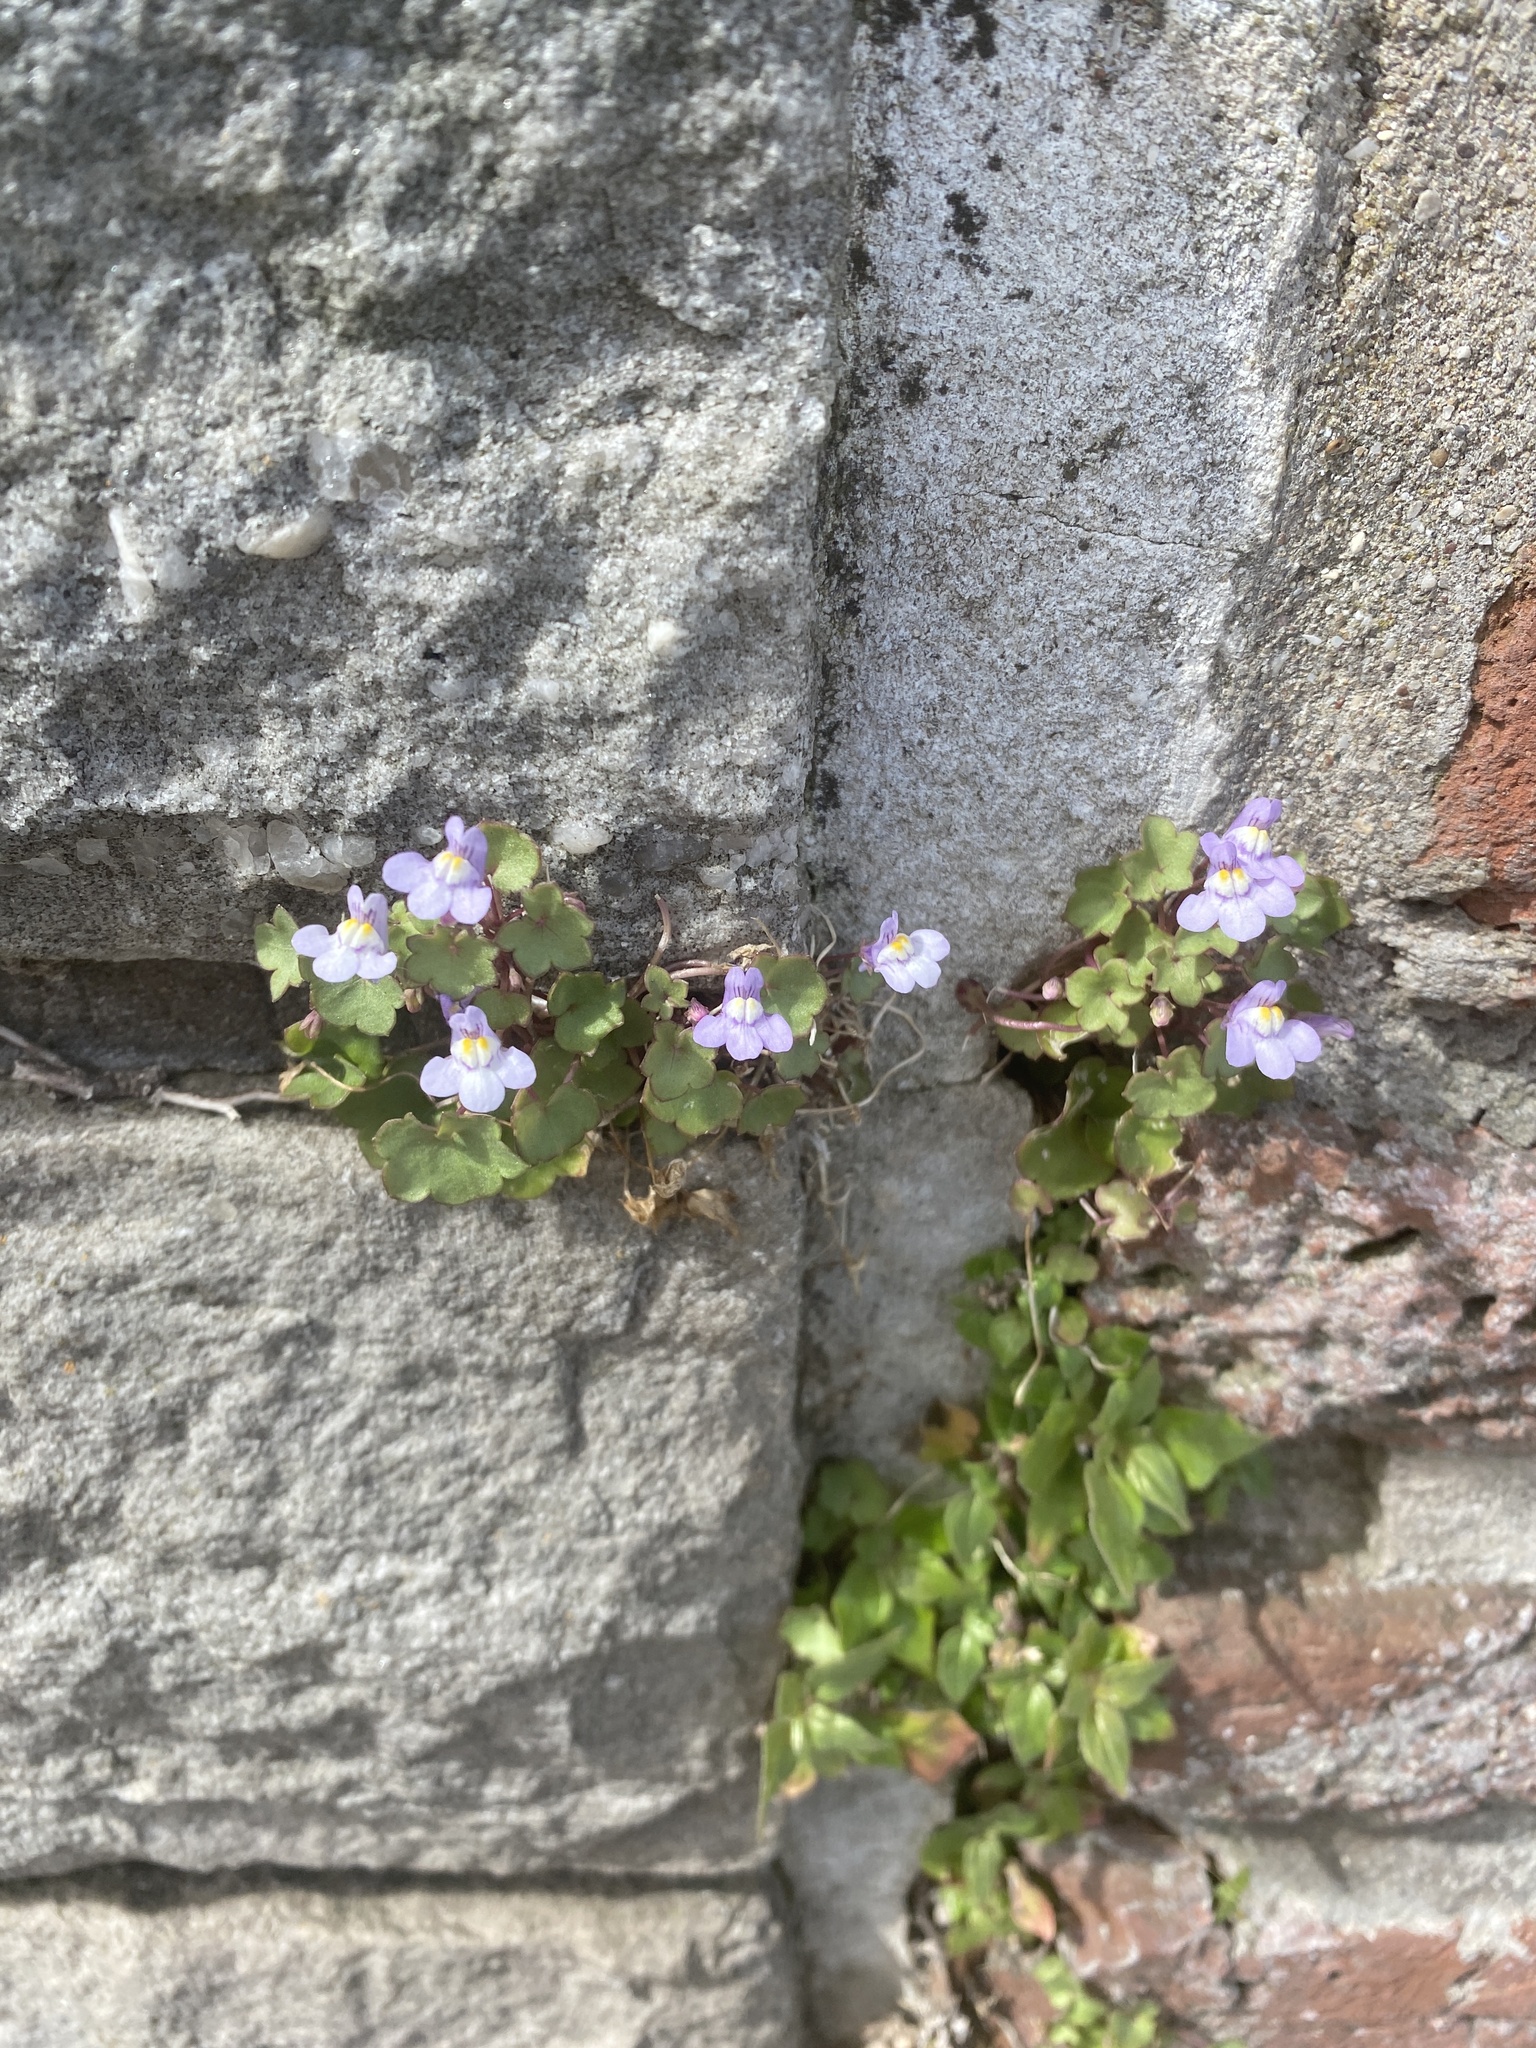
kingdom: Plantae
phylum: Tracheophyta
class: Magnoliopsida
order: Lamiales
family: Plantaginaceae
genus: Cymbalaria
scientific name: Cymbalaria muralis
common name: Ivy-leaved toadflax
